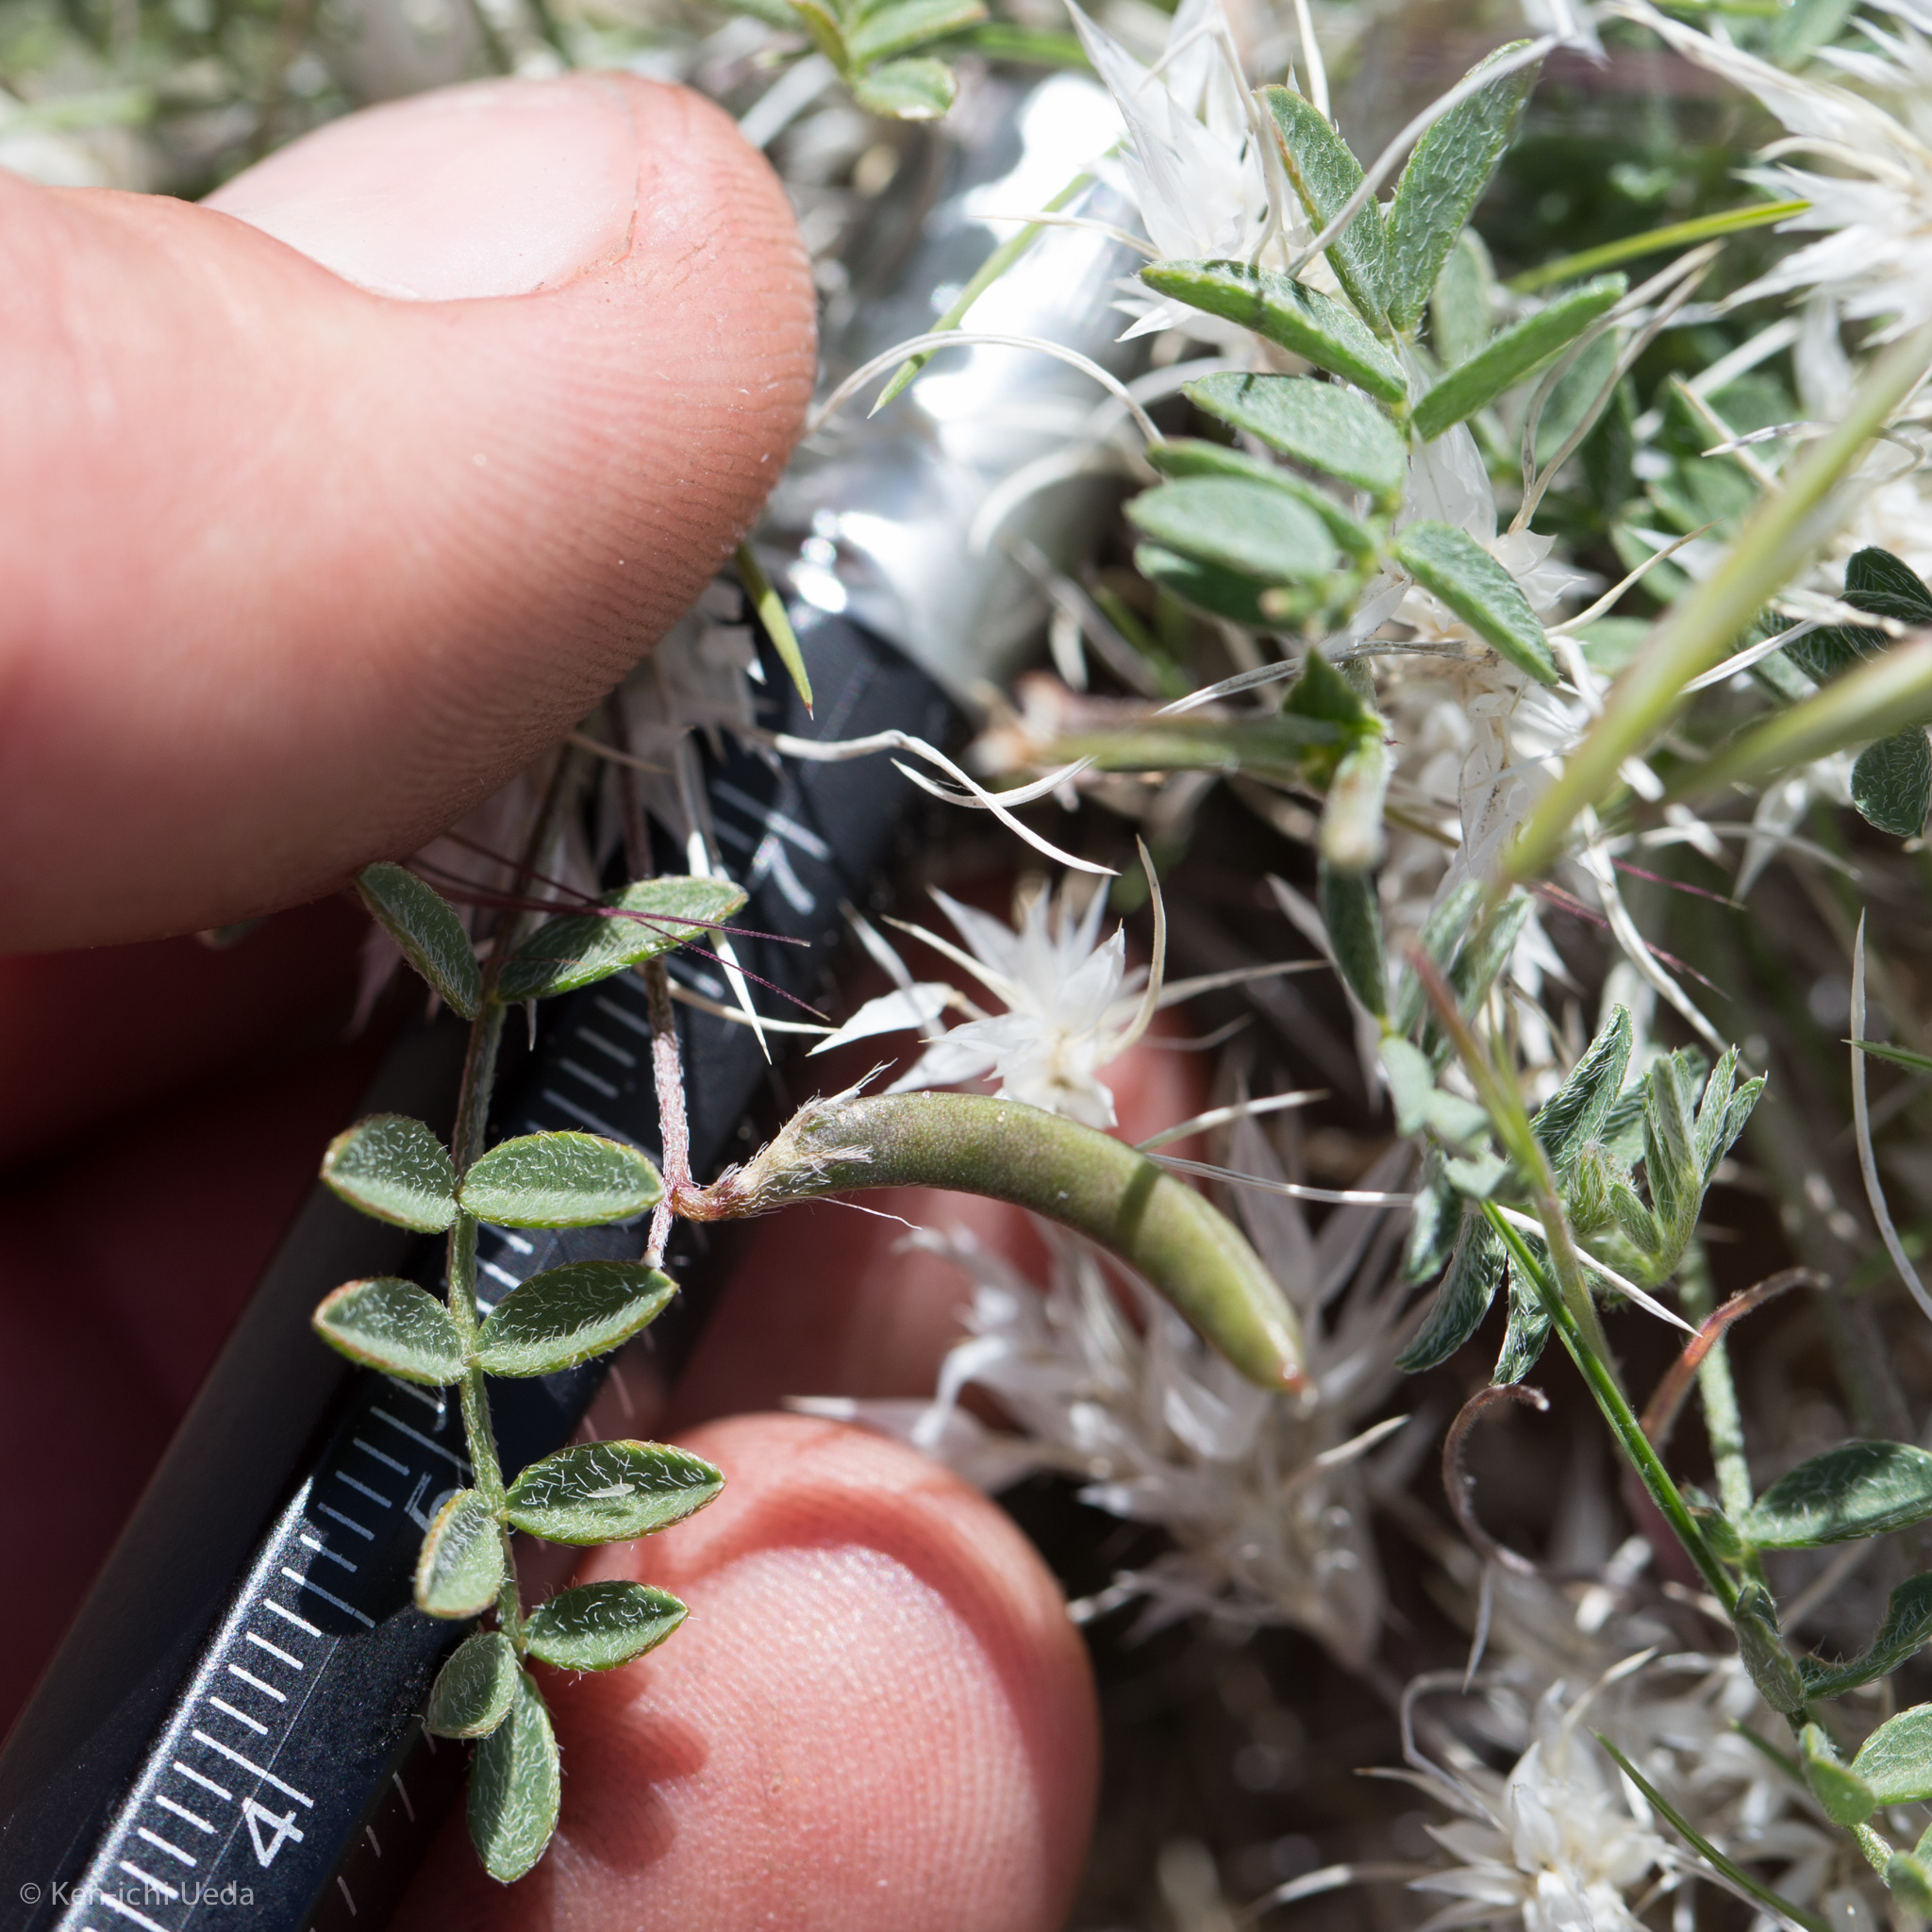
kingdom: Plantae
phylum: Tracheophyta
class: Magnoliopsida
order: Fabales
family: Fabaceae
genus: Astragalus
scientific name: Astragalus nuttallianus
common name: Smallflowered milkvetch
